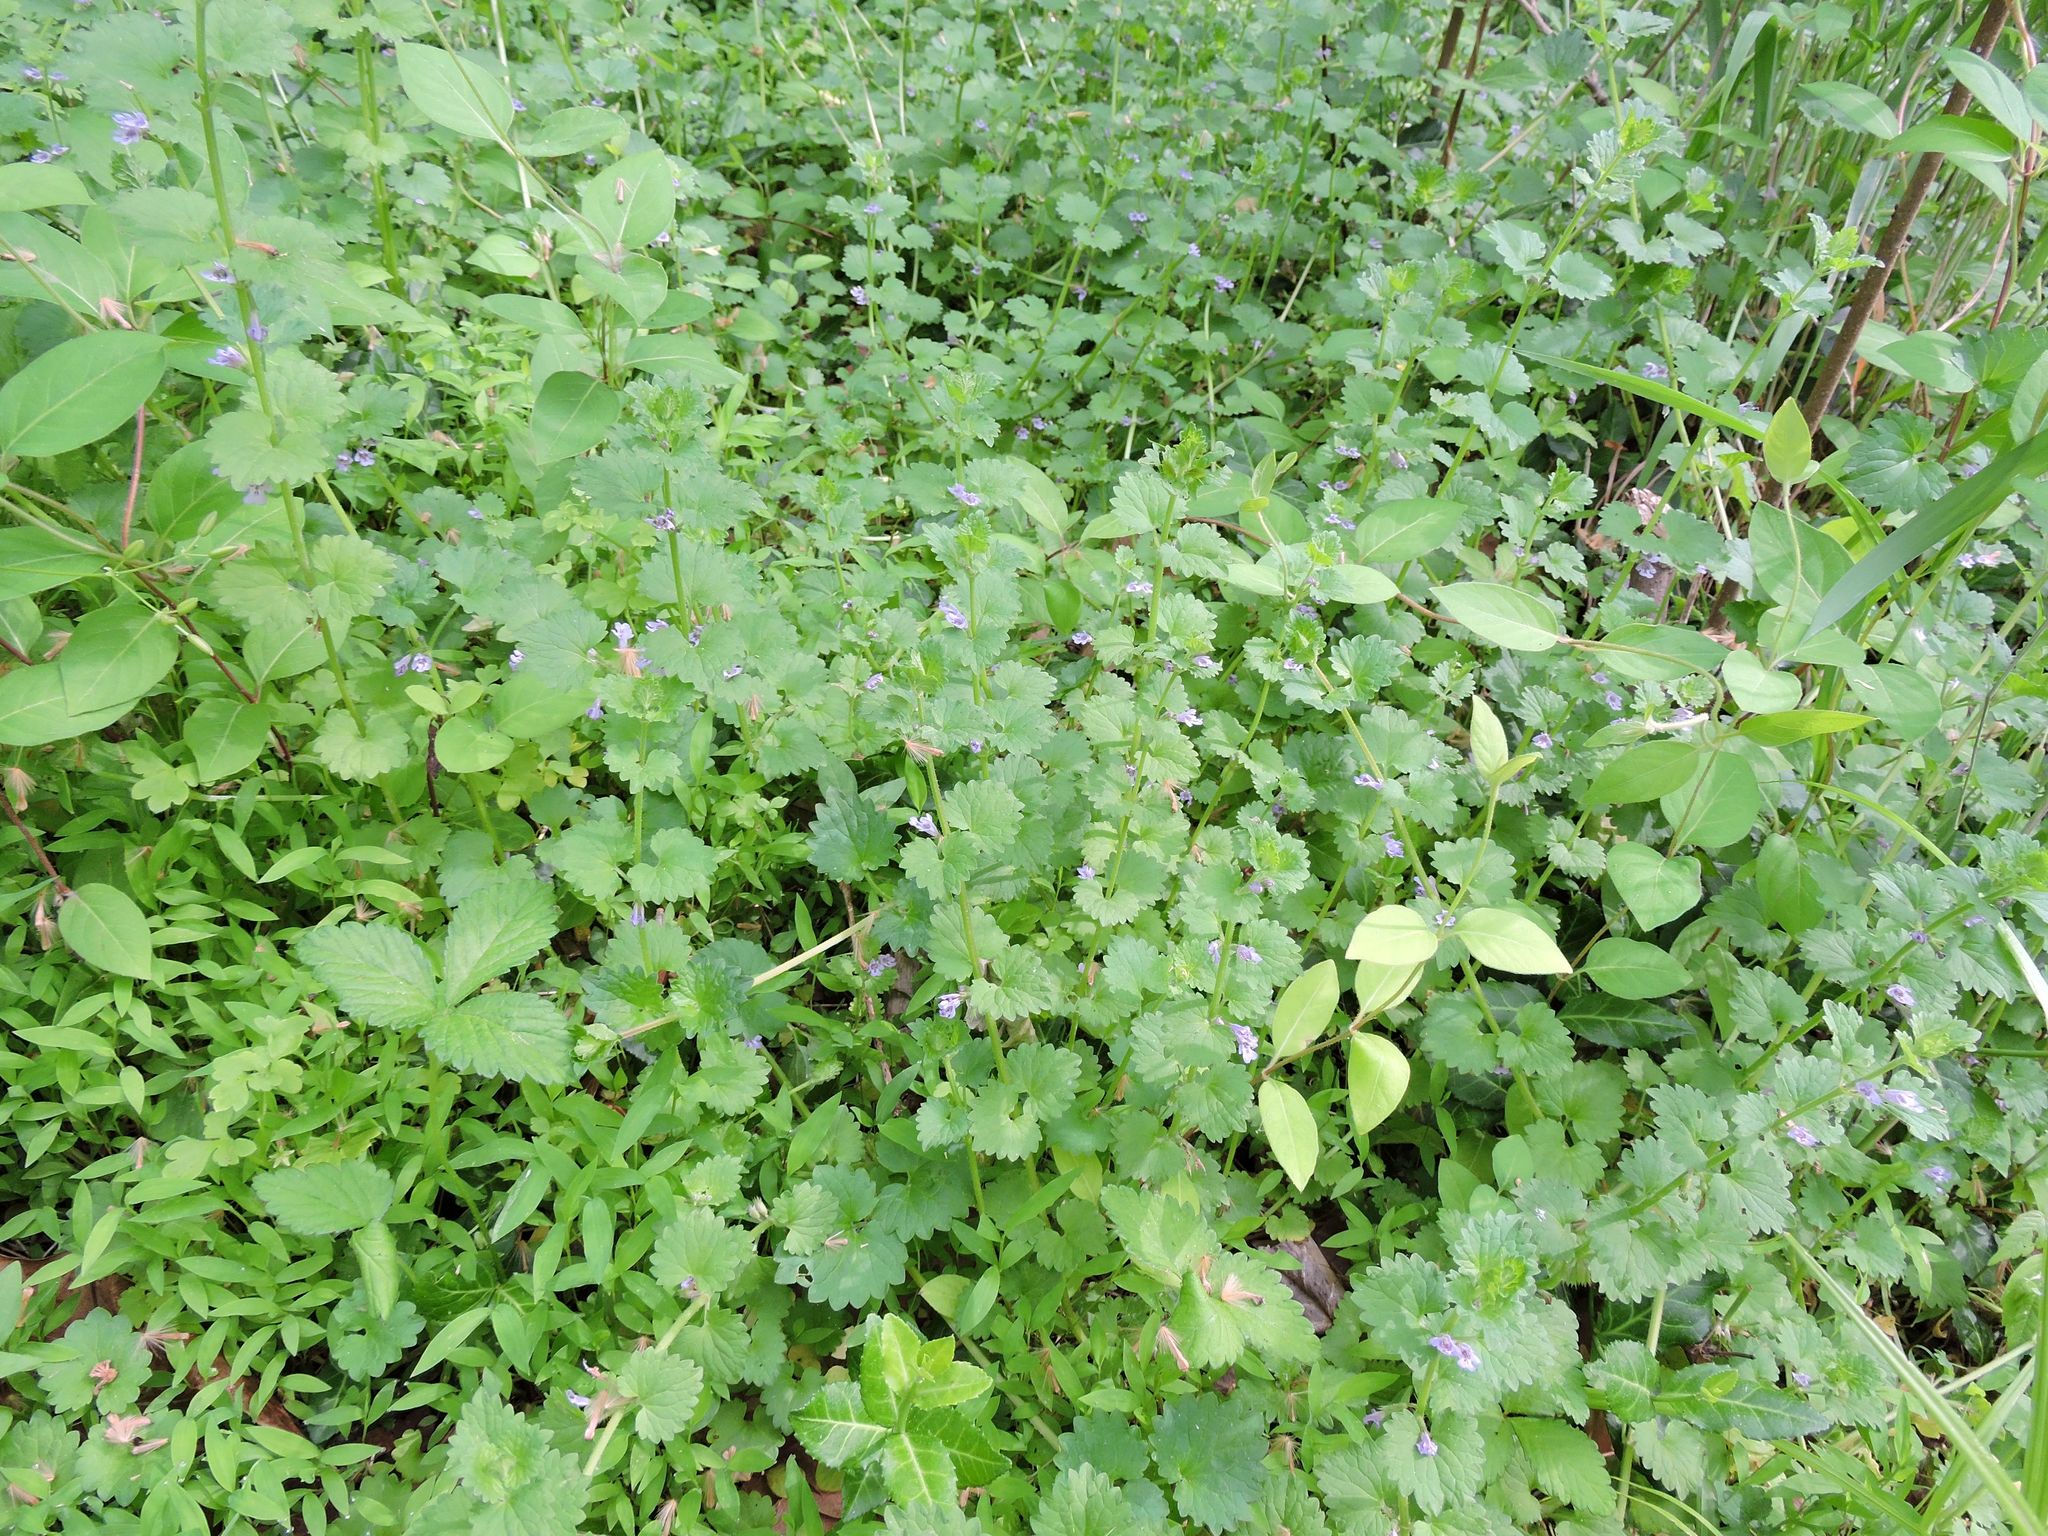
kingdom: Plantae
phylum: Tracheophyta
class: Magnoliopsida
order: Lamiales
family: Lamiaceae
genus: Glechoma
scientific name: Glechoma hederacea
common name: Ground ivy
